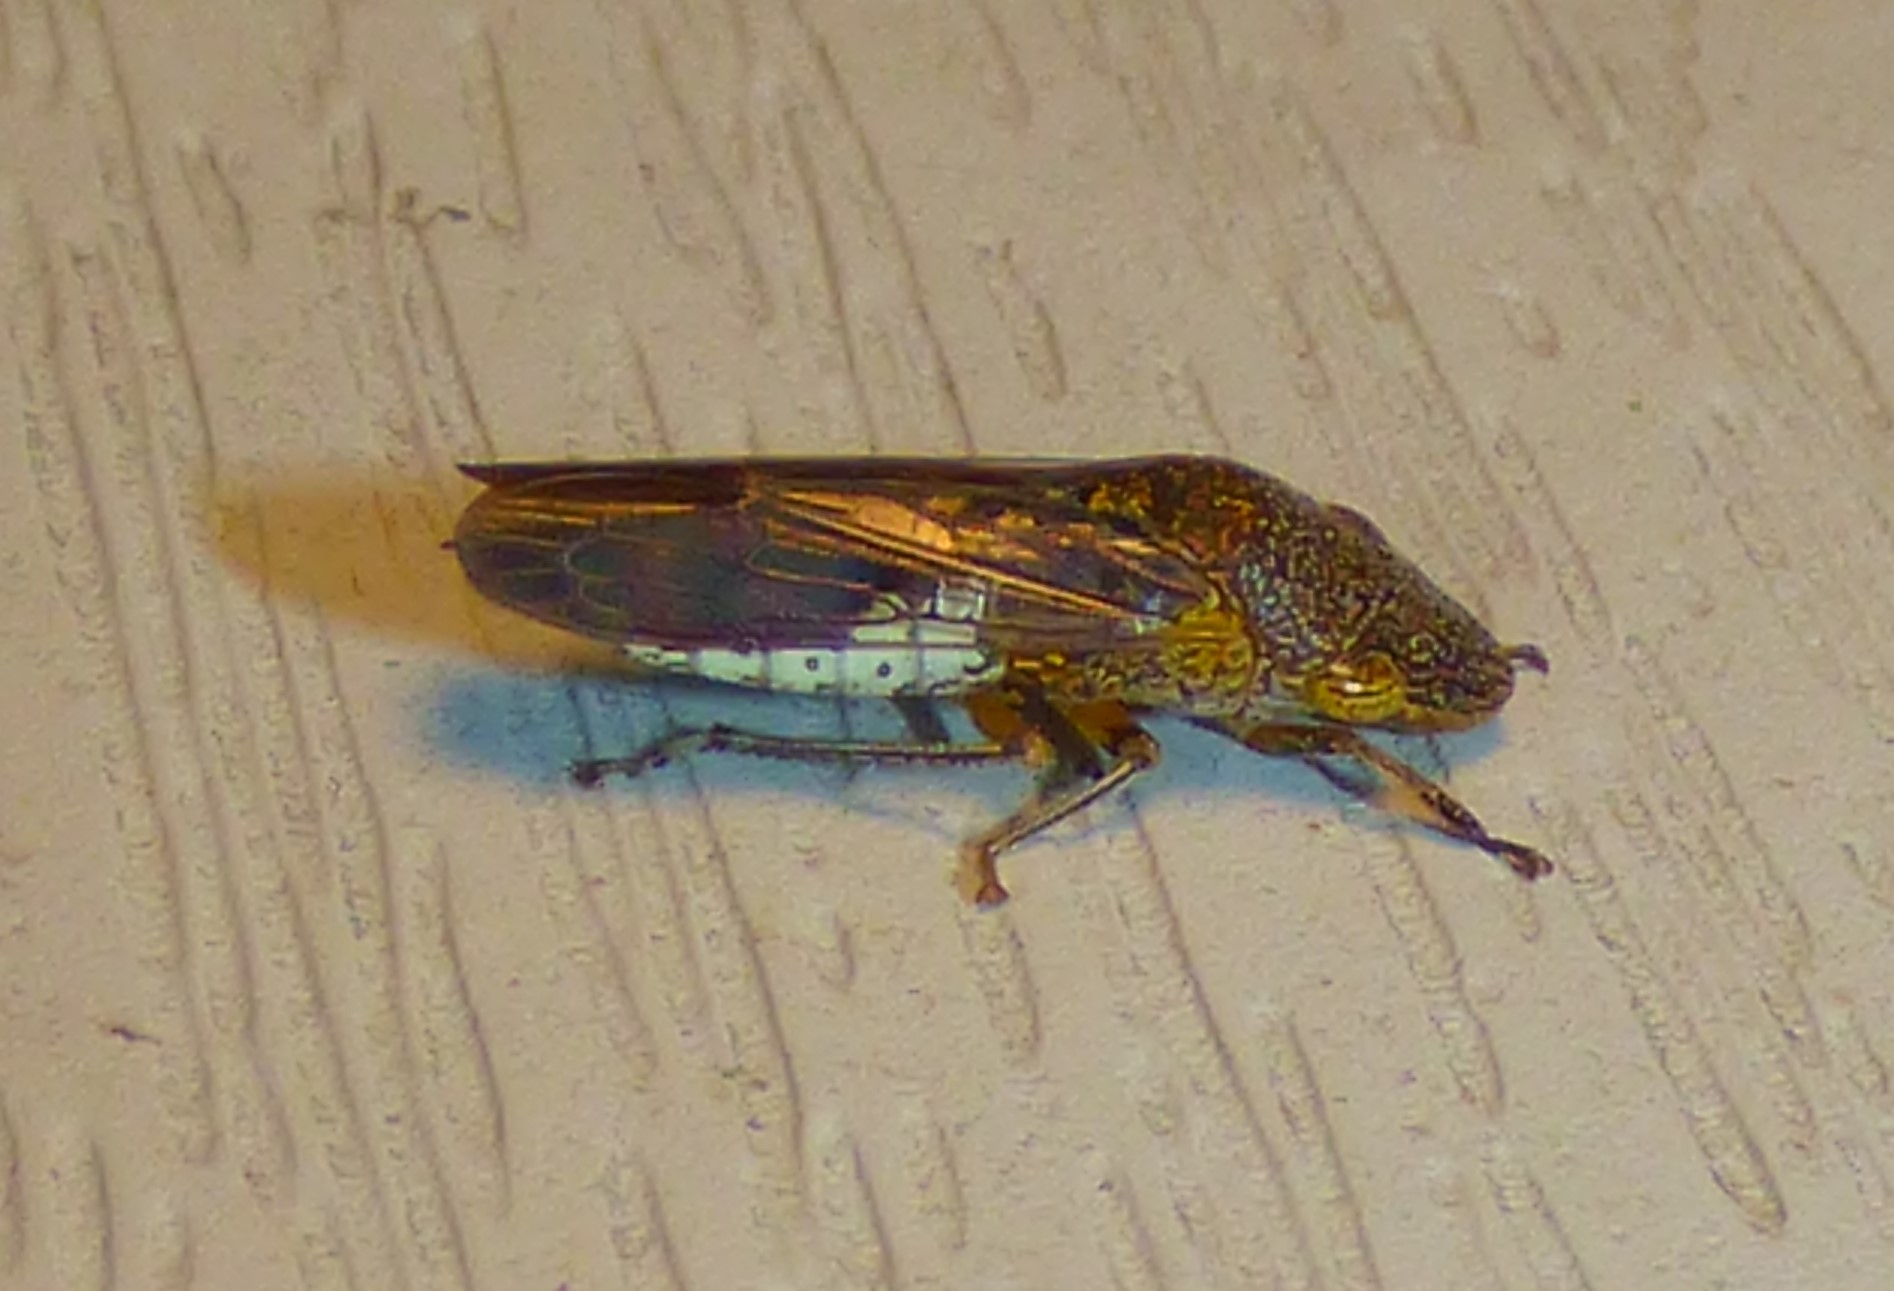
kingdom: Animalia
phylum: Arthropoda
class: Insecta
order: Hemiptera
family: Cicadellidae
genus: Homalodisca
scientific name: Homalodisca vitripennis
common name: Glassy-winged sharpshooter
